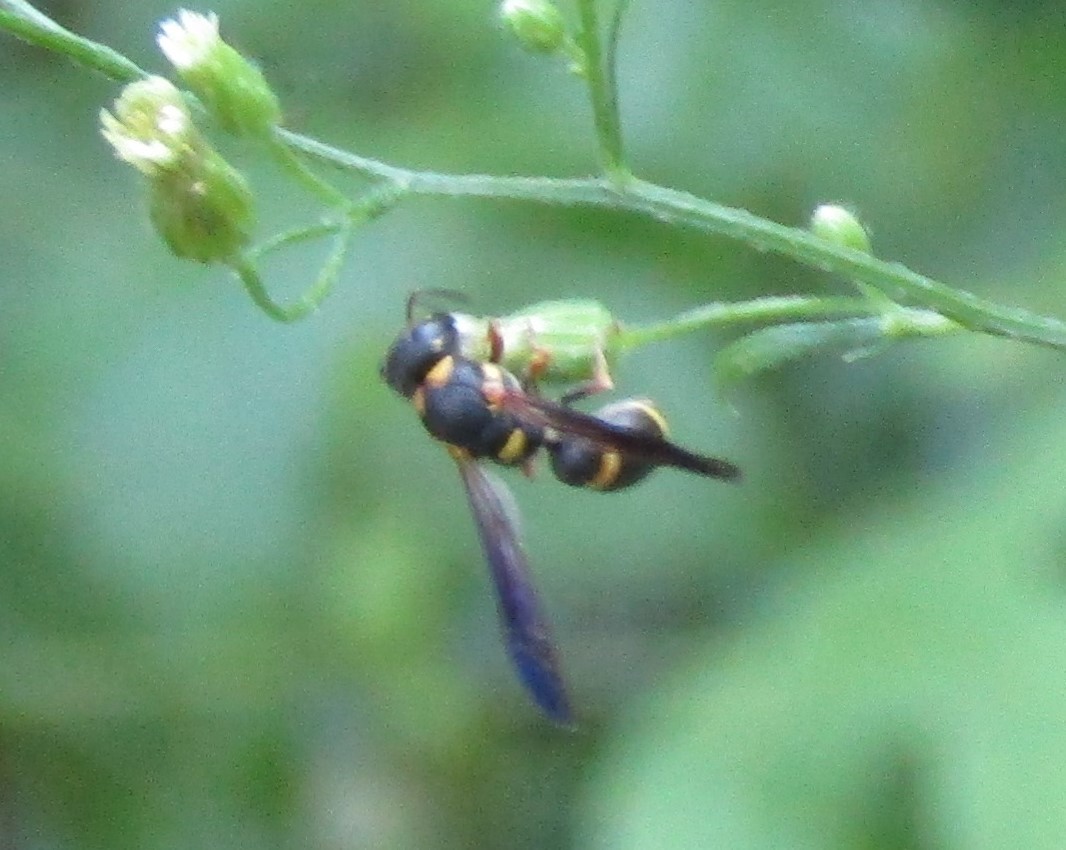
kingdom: Animalia
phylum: Arthropoda
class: Insecta
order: Hymenoptera
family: Eumenidae
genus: Parancistrocerus
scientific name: Parancistrocerus perennis
